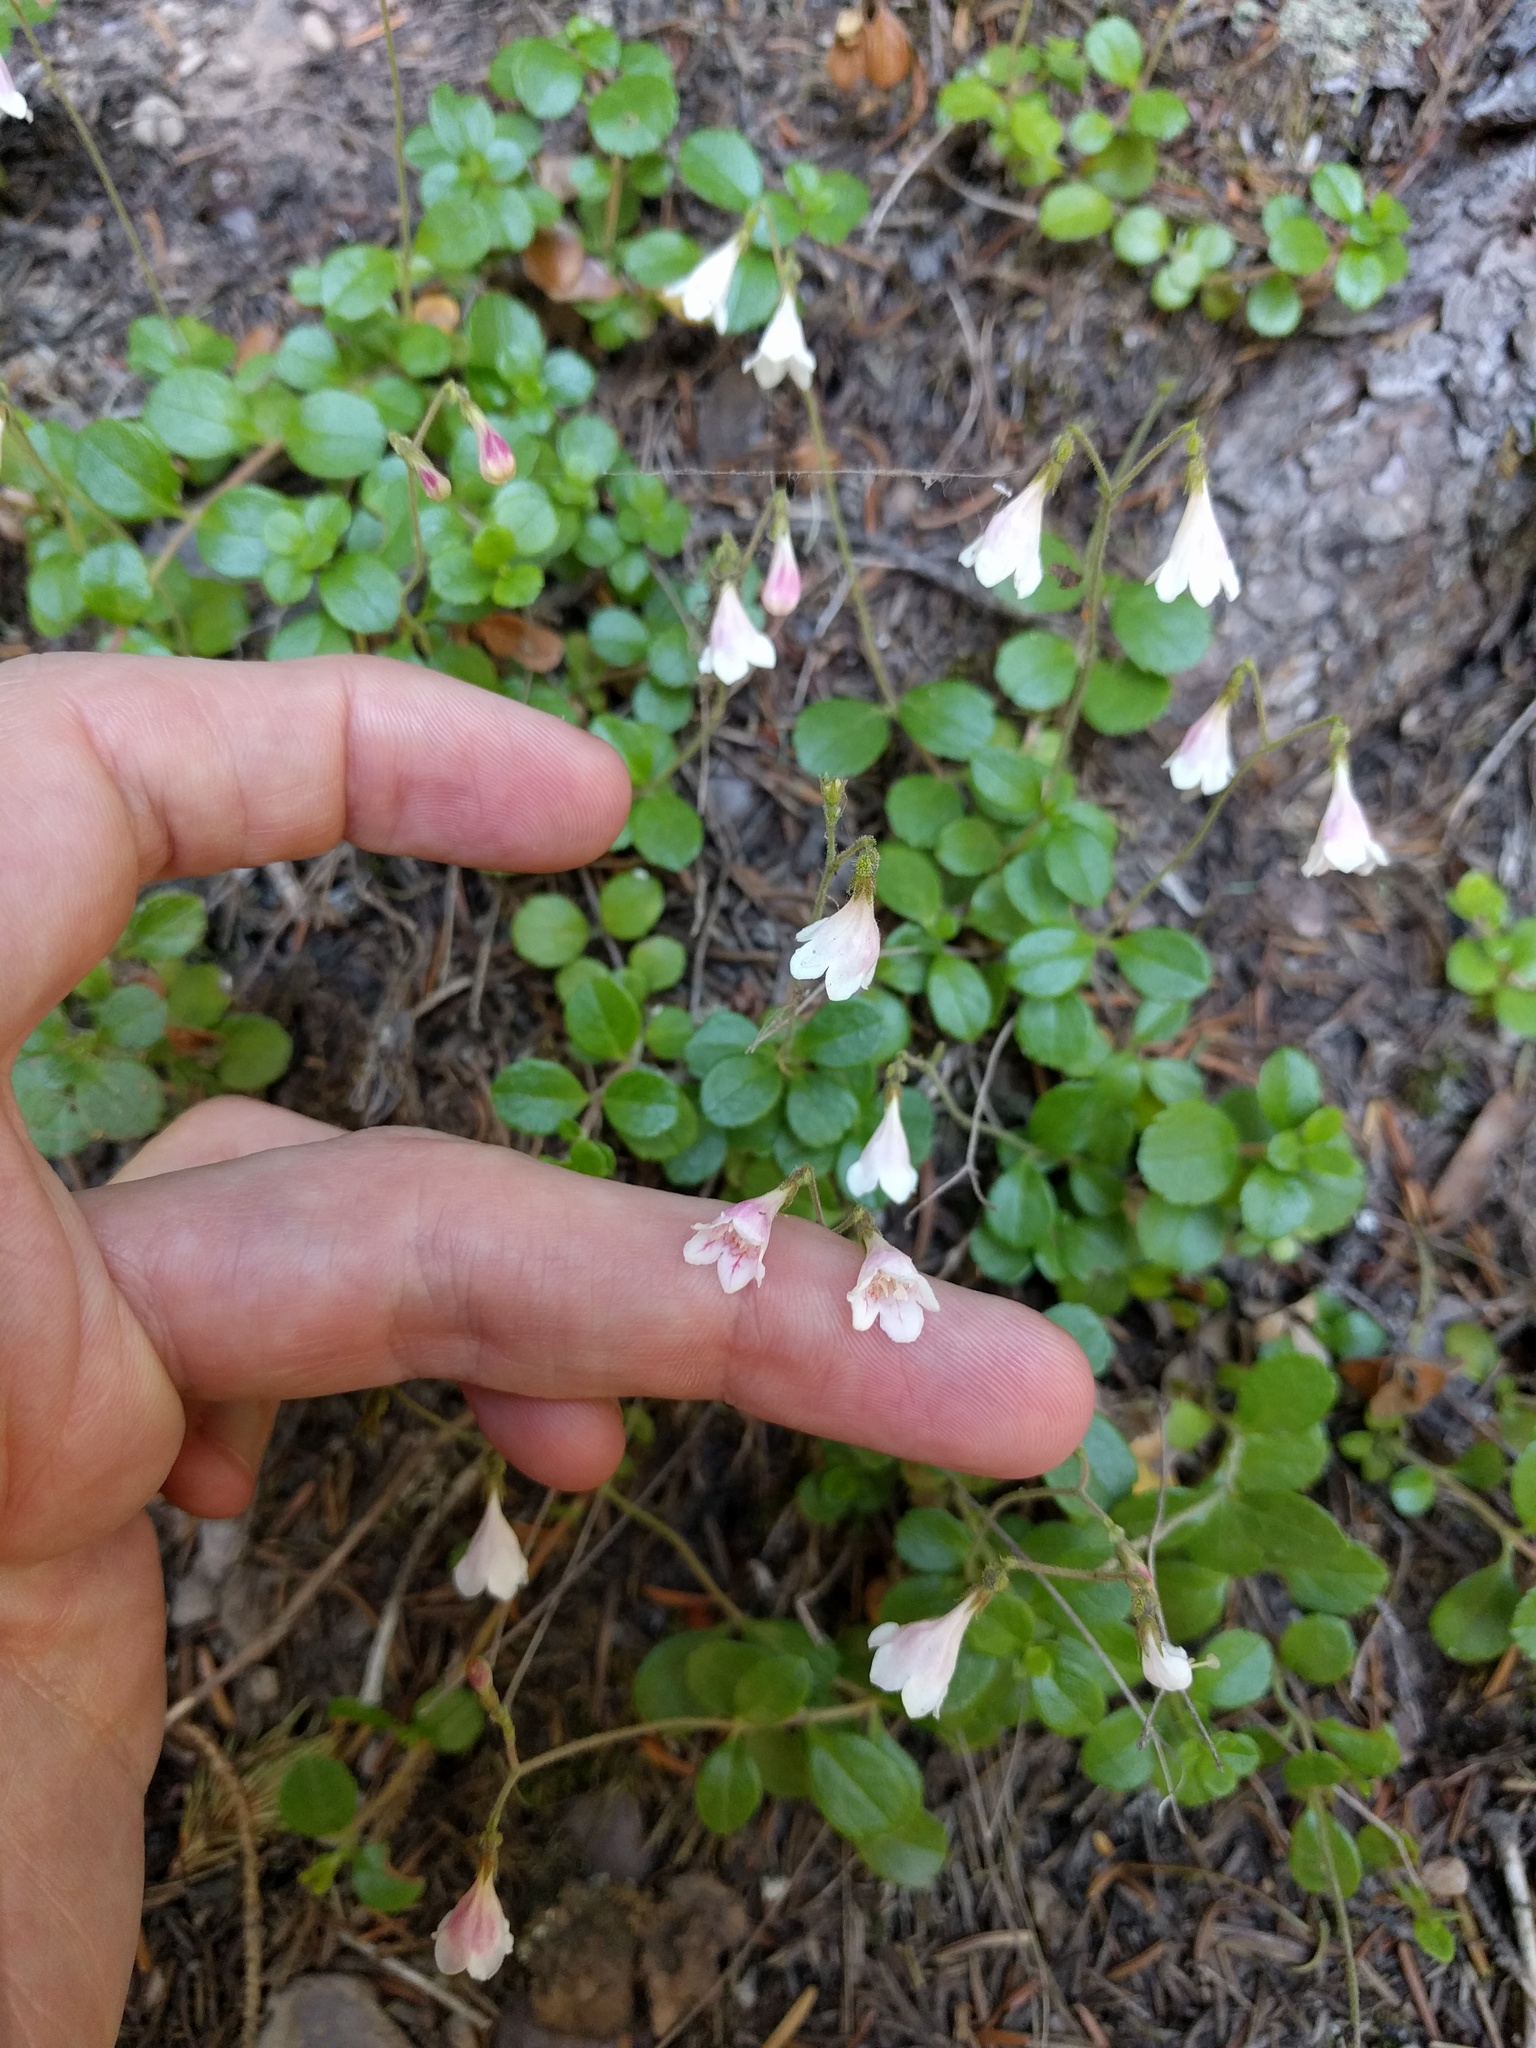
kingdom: Plantae
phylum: Tracheophyta
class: Magnoliopsida
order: Dipsacales
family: Caprifoliaceae
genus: Linnaea
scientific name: Linnaea borealis
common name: Twinflower
